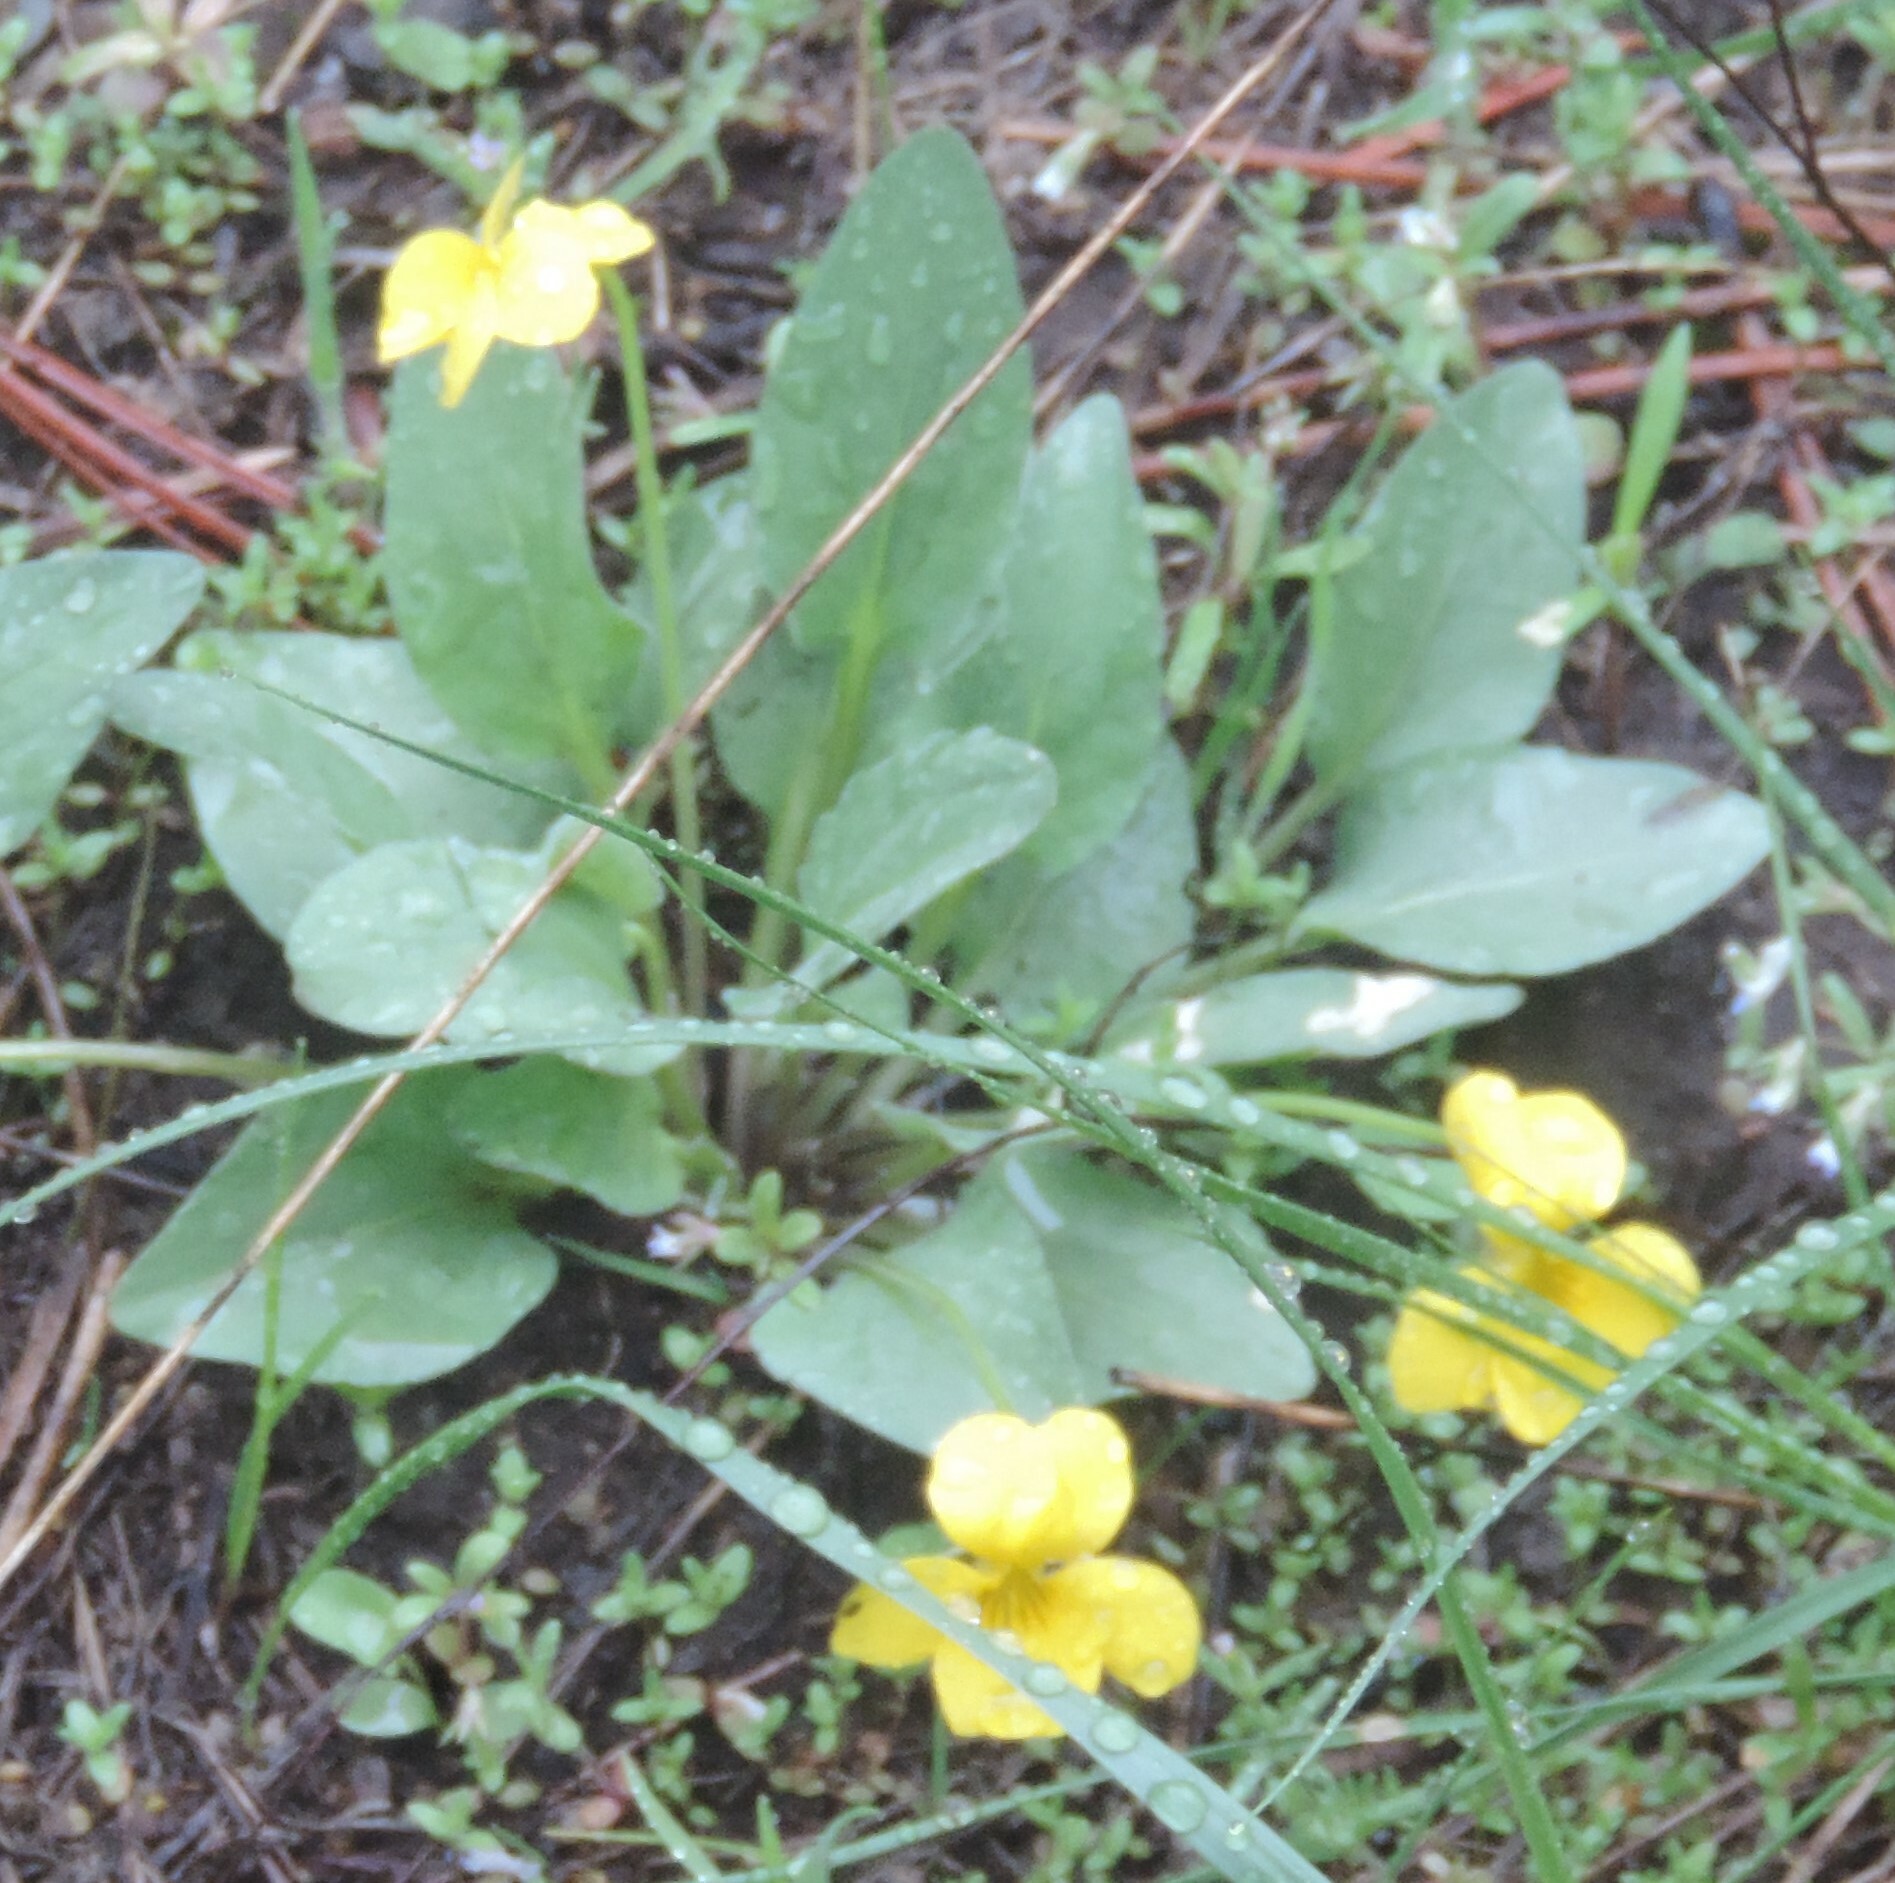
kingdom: Plantae
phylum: Tracheophyta
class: Magnoliopsida
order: Malpighiales
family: Violaceae
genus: Viola
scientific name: Viola vallicola
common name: Valley violet
